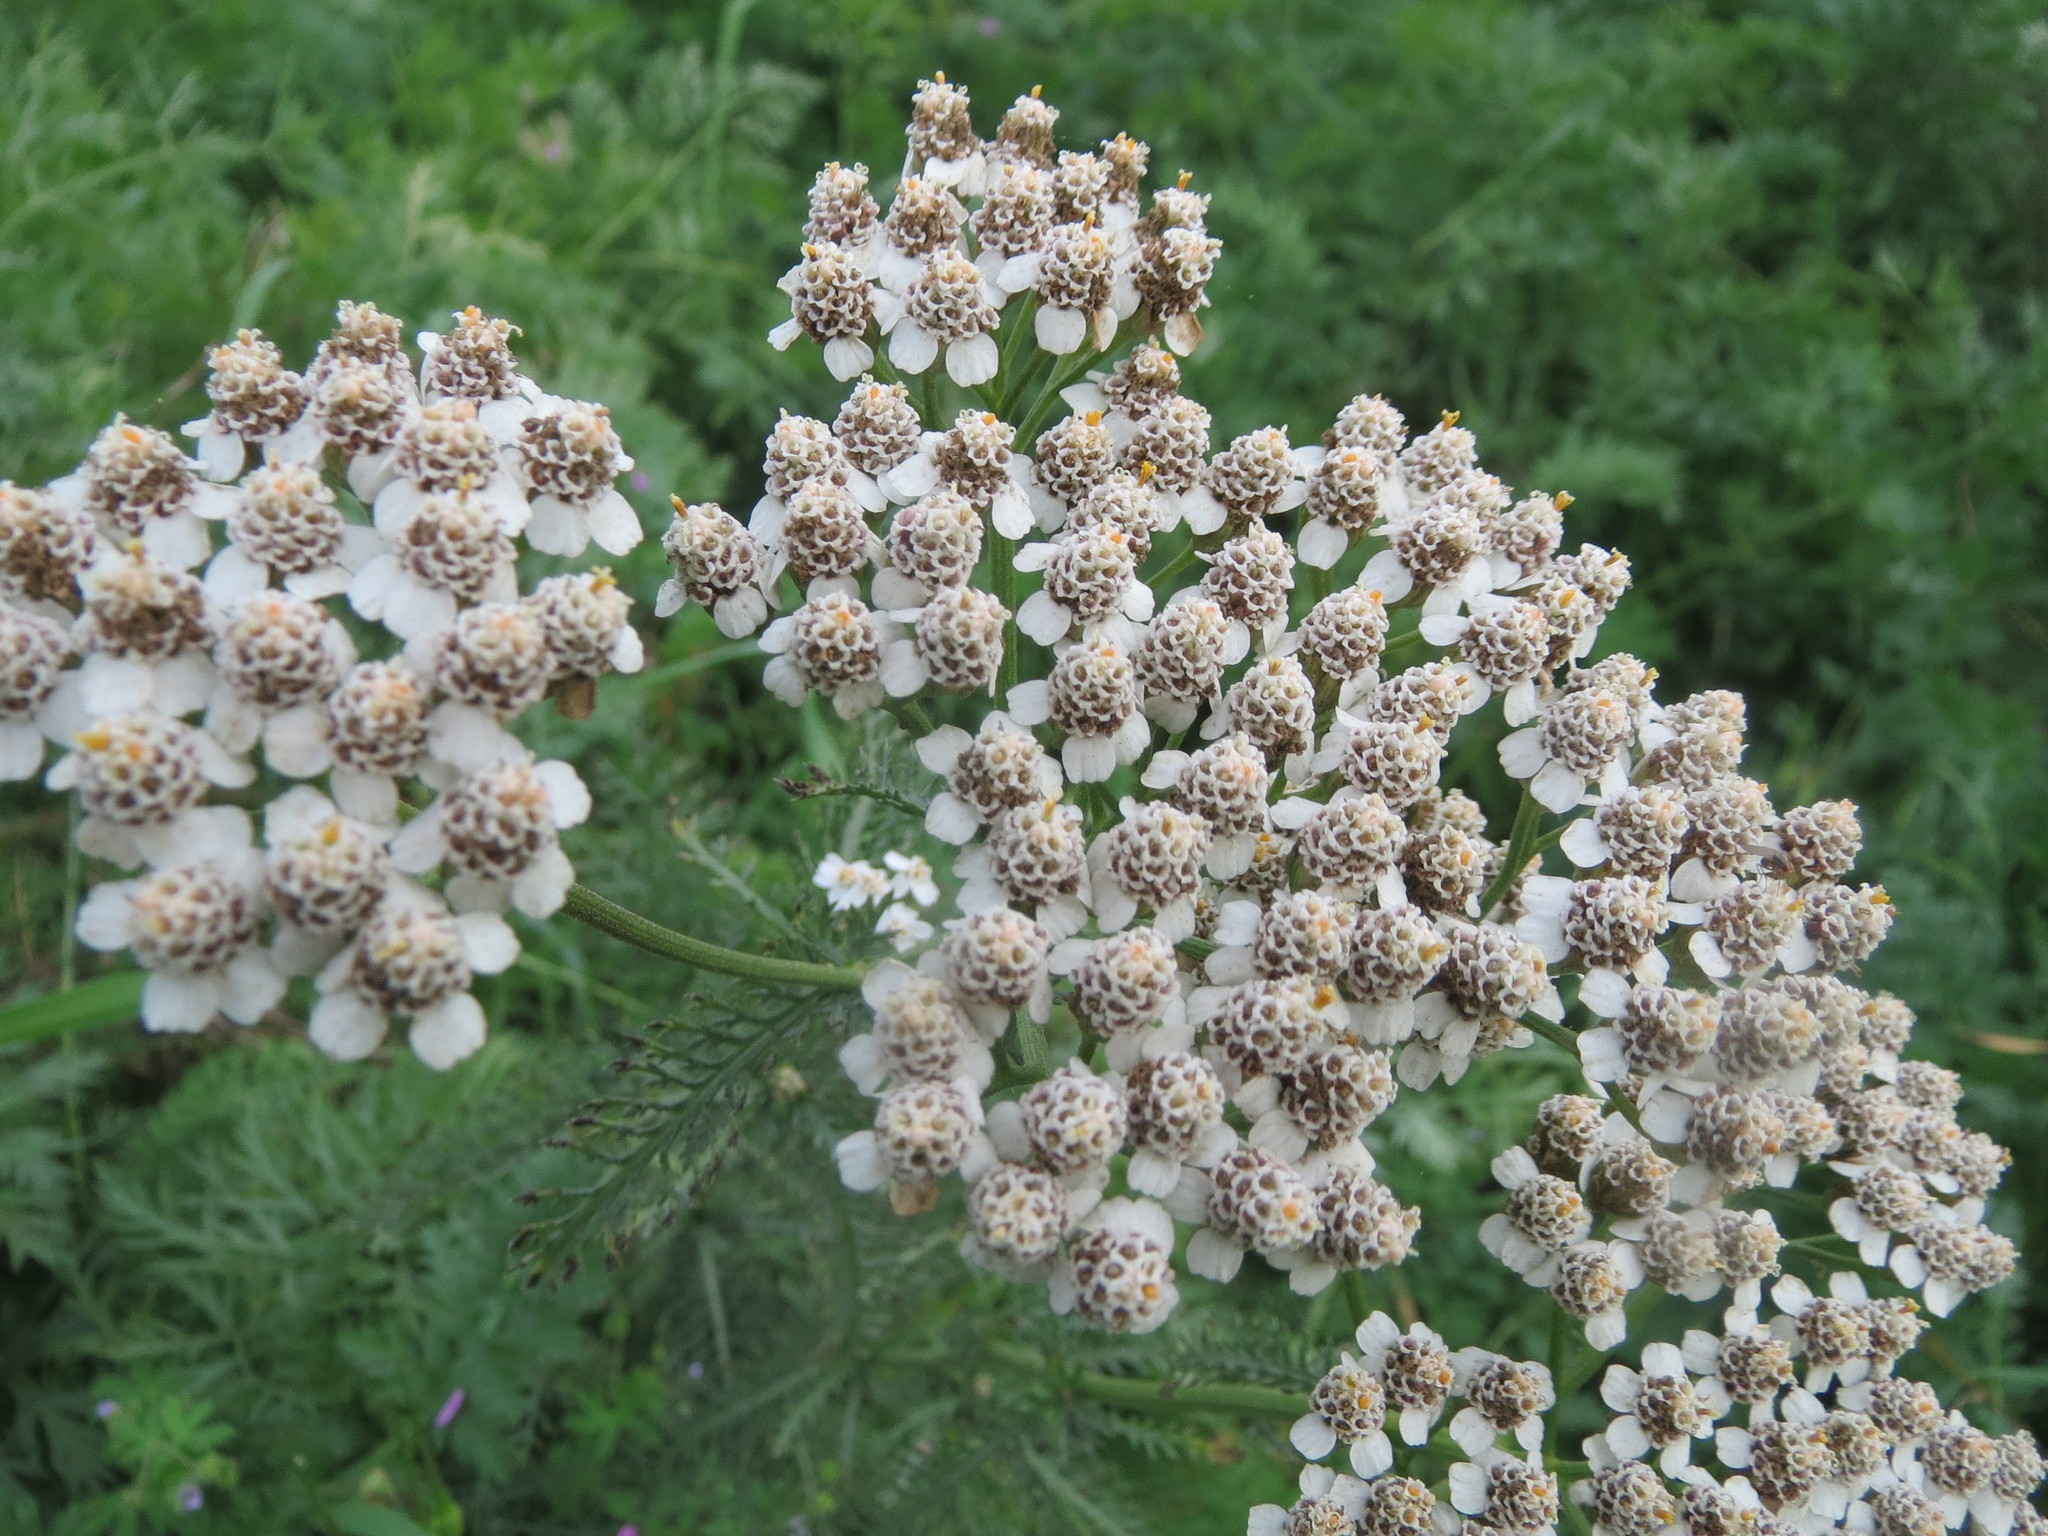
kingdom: Plantae
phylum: Tracheophyta
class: Magnoliopsida
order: Asterales
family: Asteraceae
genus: Achillea
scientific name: Achillea millefolium
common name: Yarrow
